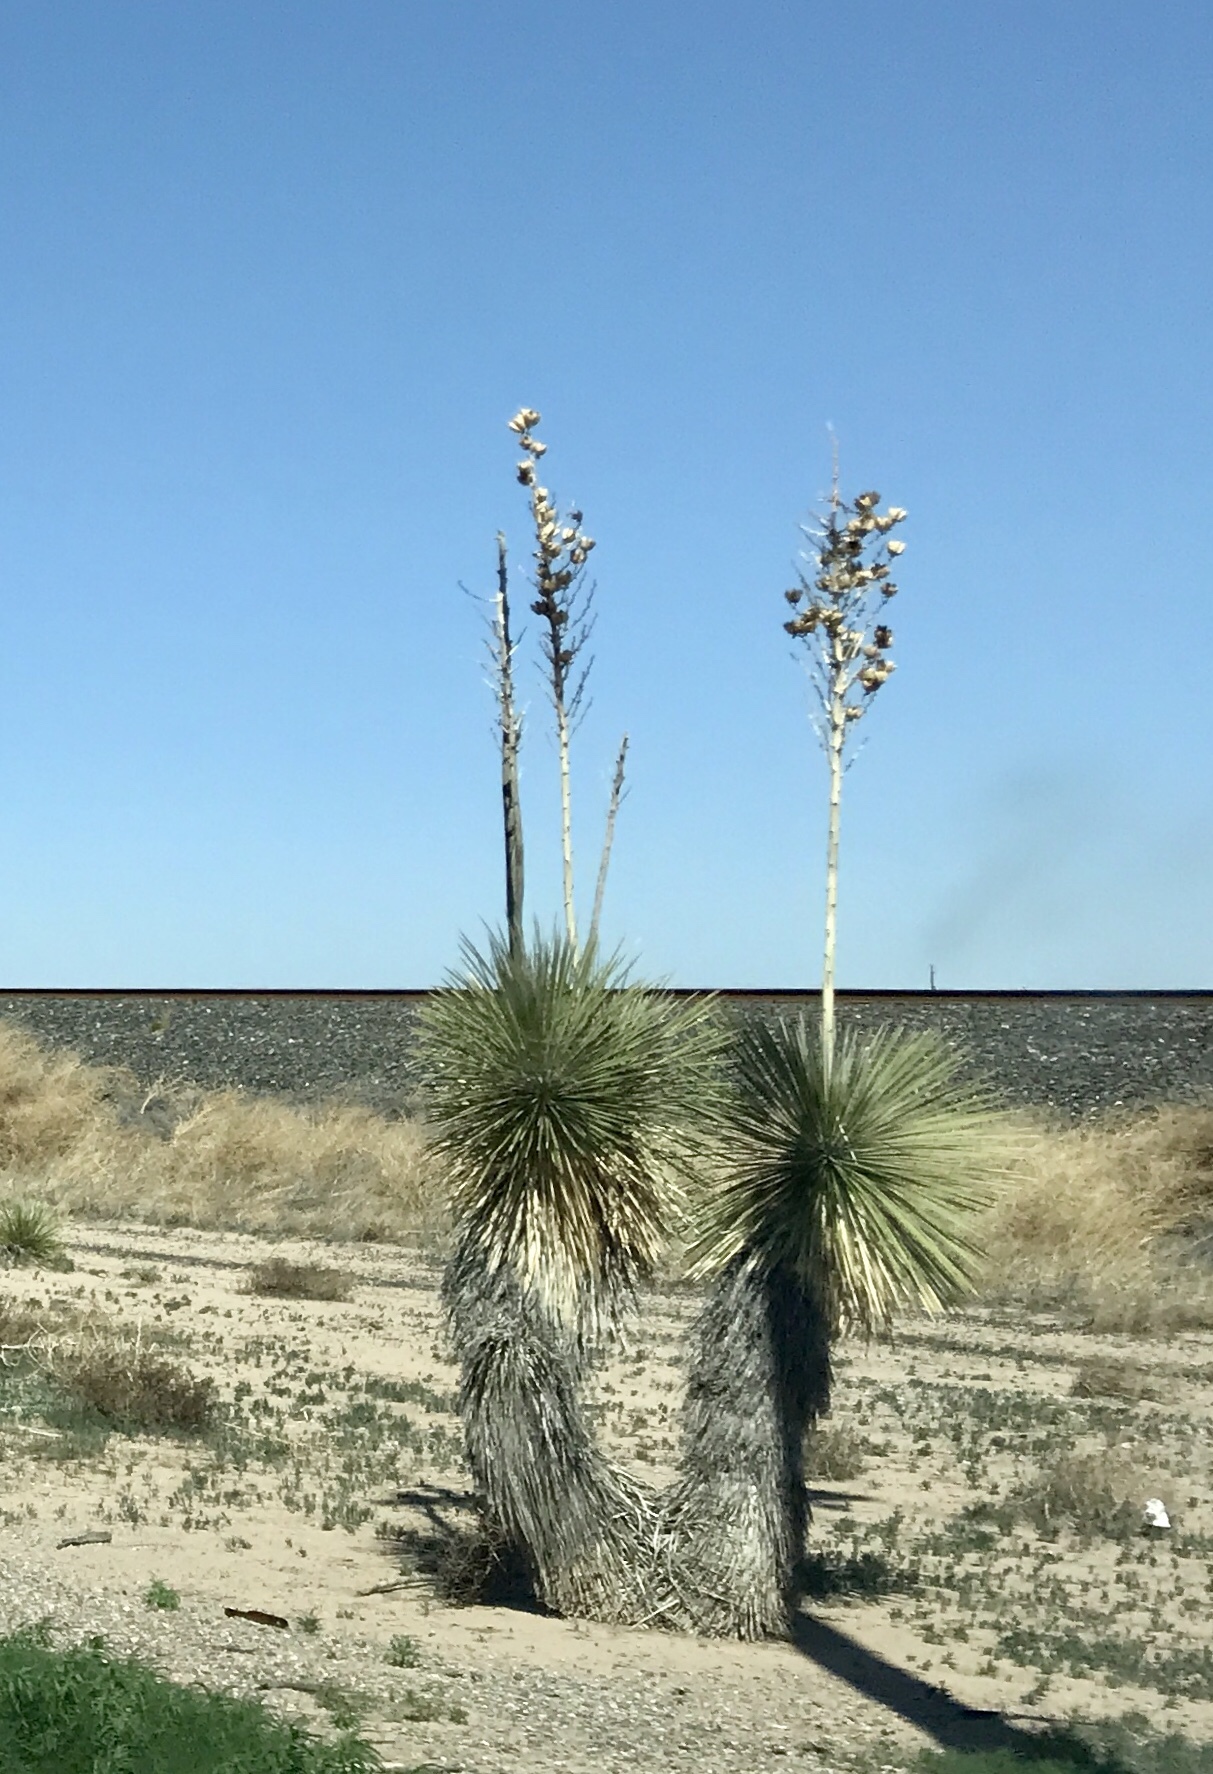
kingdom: Plantae
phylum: Tracheophyta
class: Liliopsida
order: Asparagales
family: Asparagaceae
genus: Yucca
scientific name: Yucca elata
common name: Palmella
